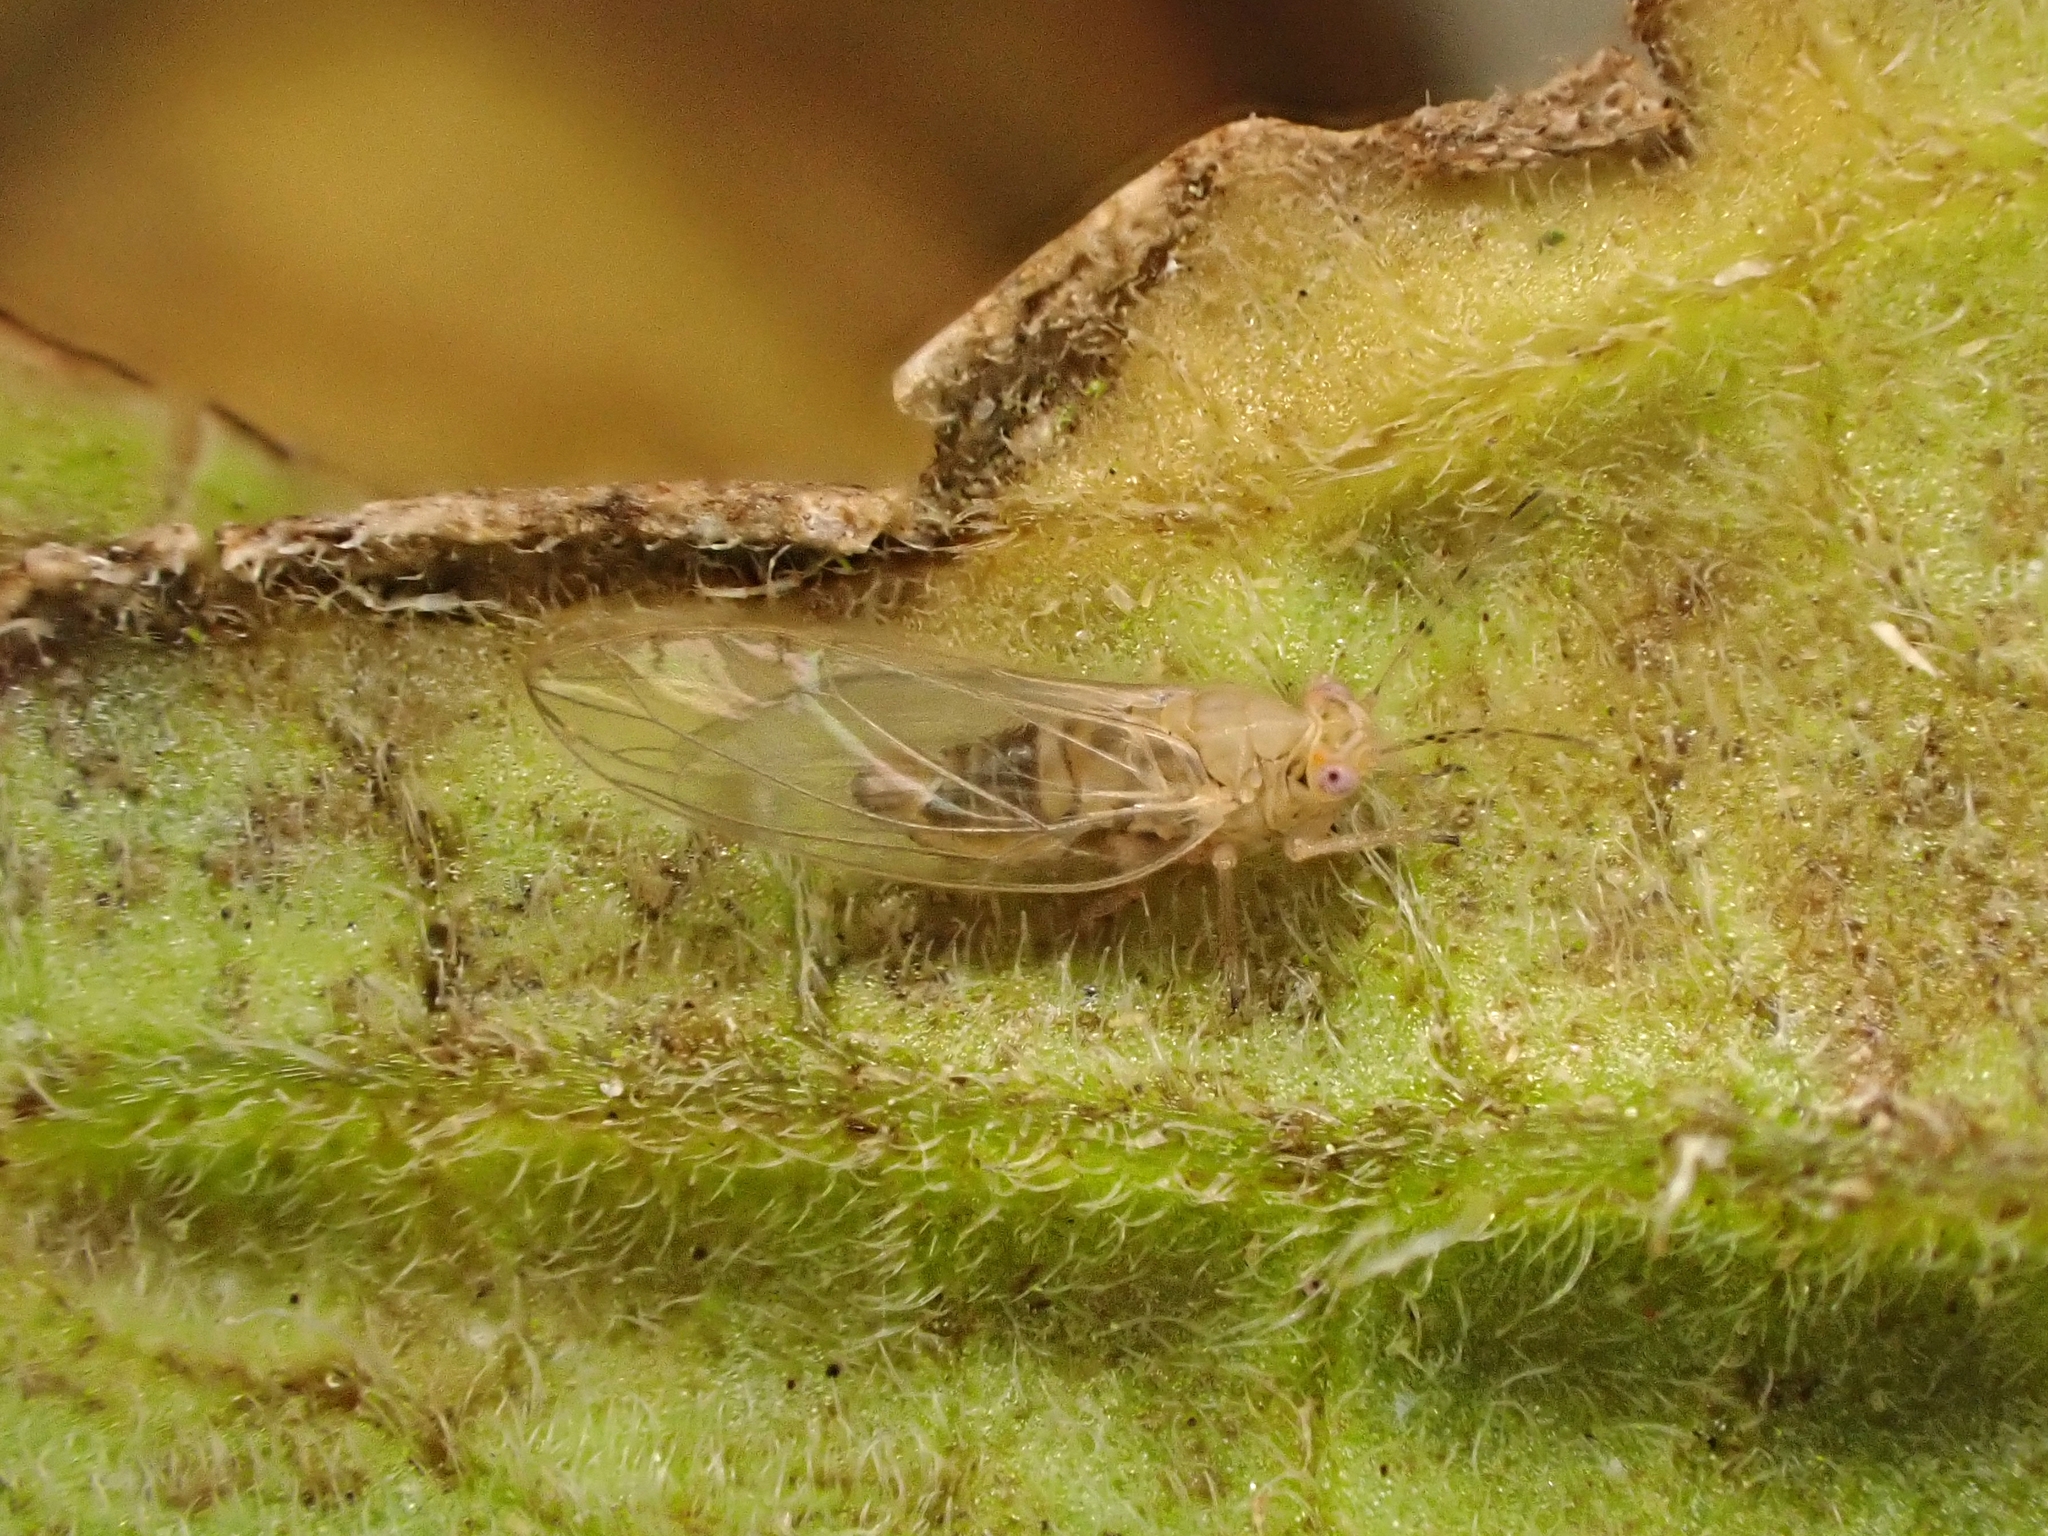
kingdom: Animalia
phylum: Arthropoda
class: Insecta
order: Hemiptera
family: Triozidae
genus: Bactericera
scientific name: Bactericera cockerelli
